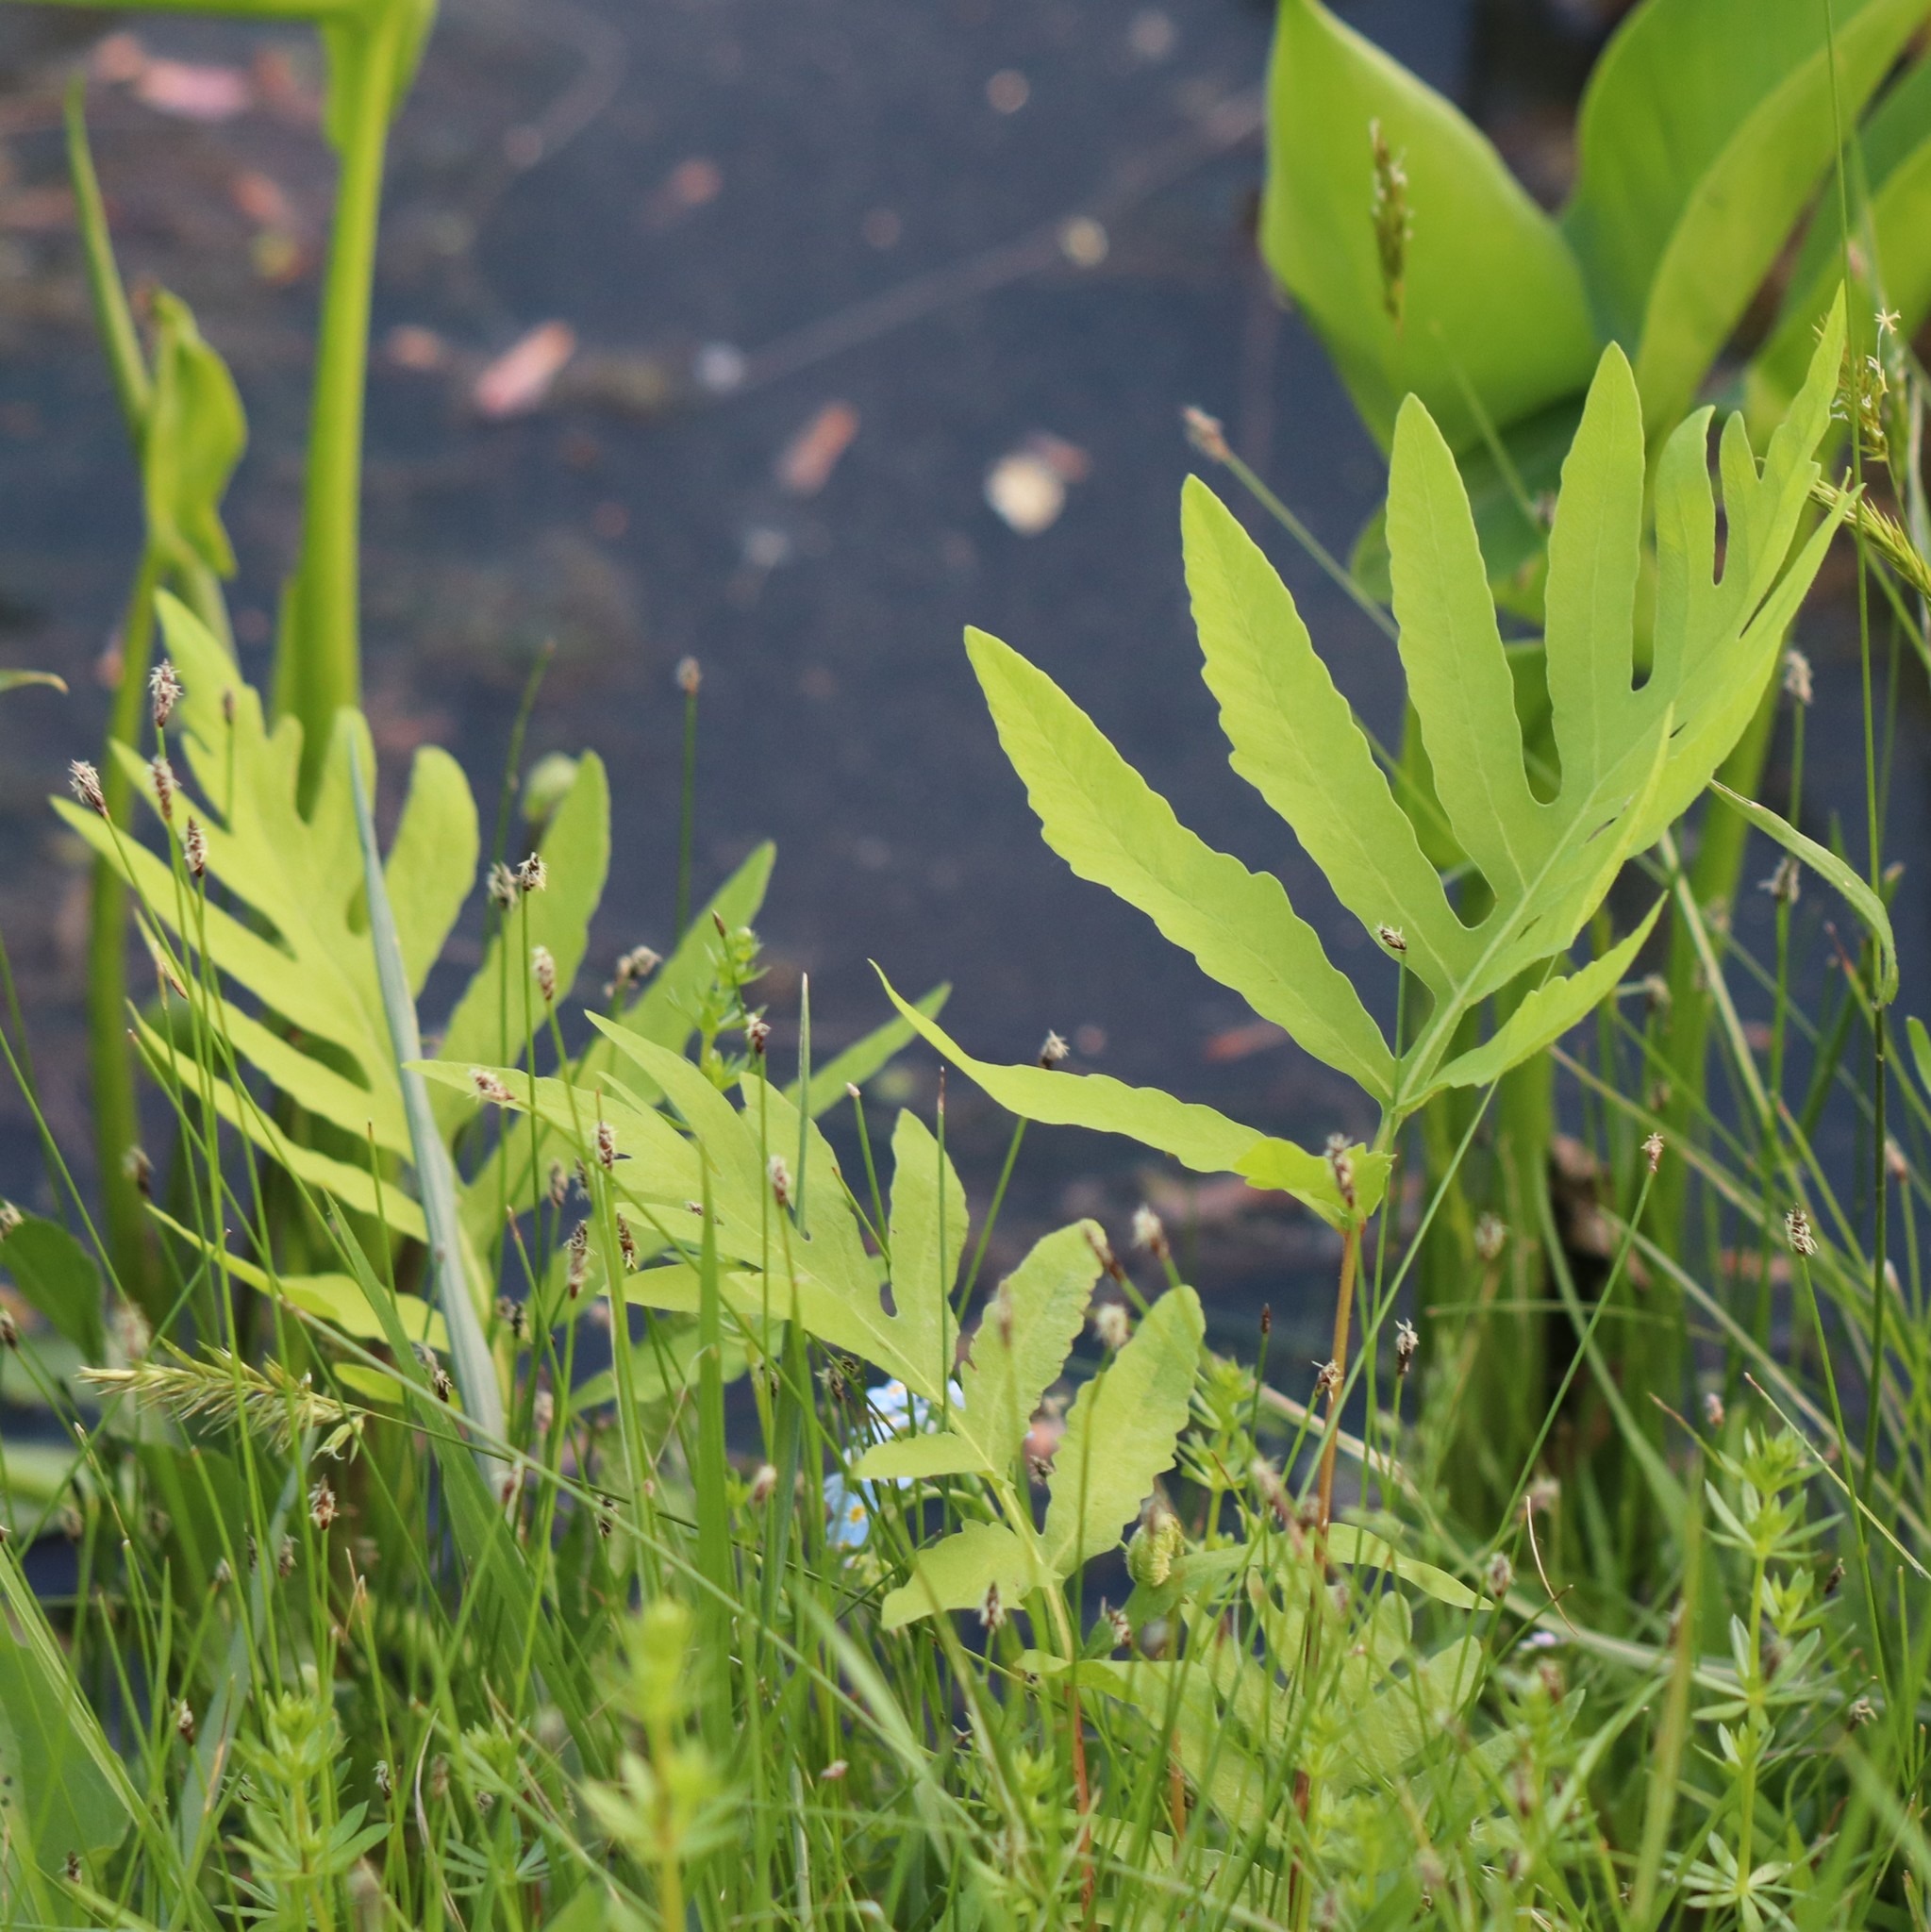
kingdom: Plantae
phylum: Tracheophyta
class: Polypodiopsida
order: Polypodiales
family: Onocleaceae
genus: Onoclea
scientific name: Onoclea sensibilis
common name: Sensitive fern
